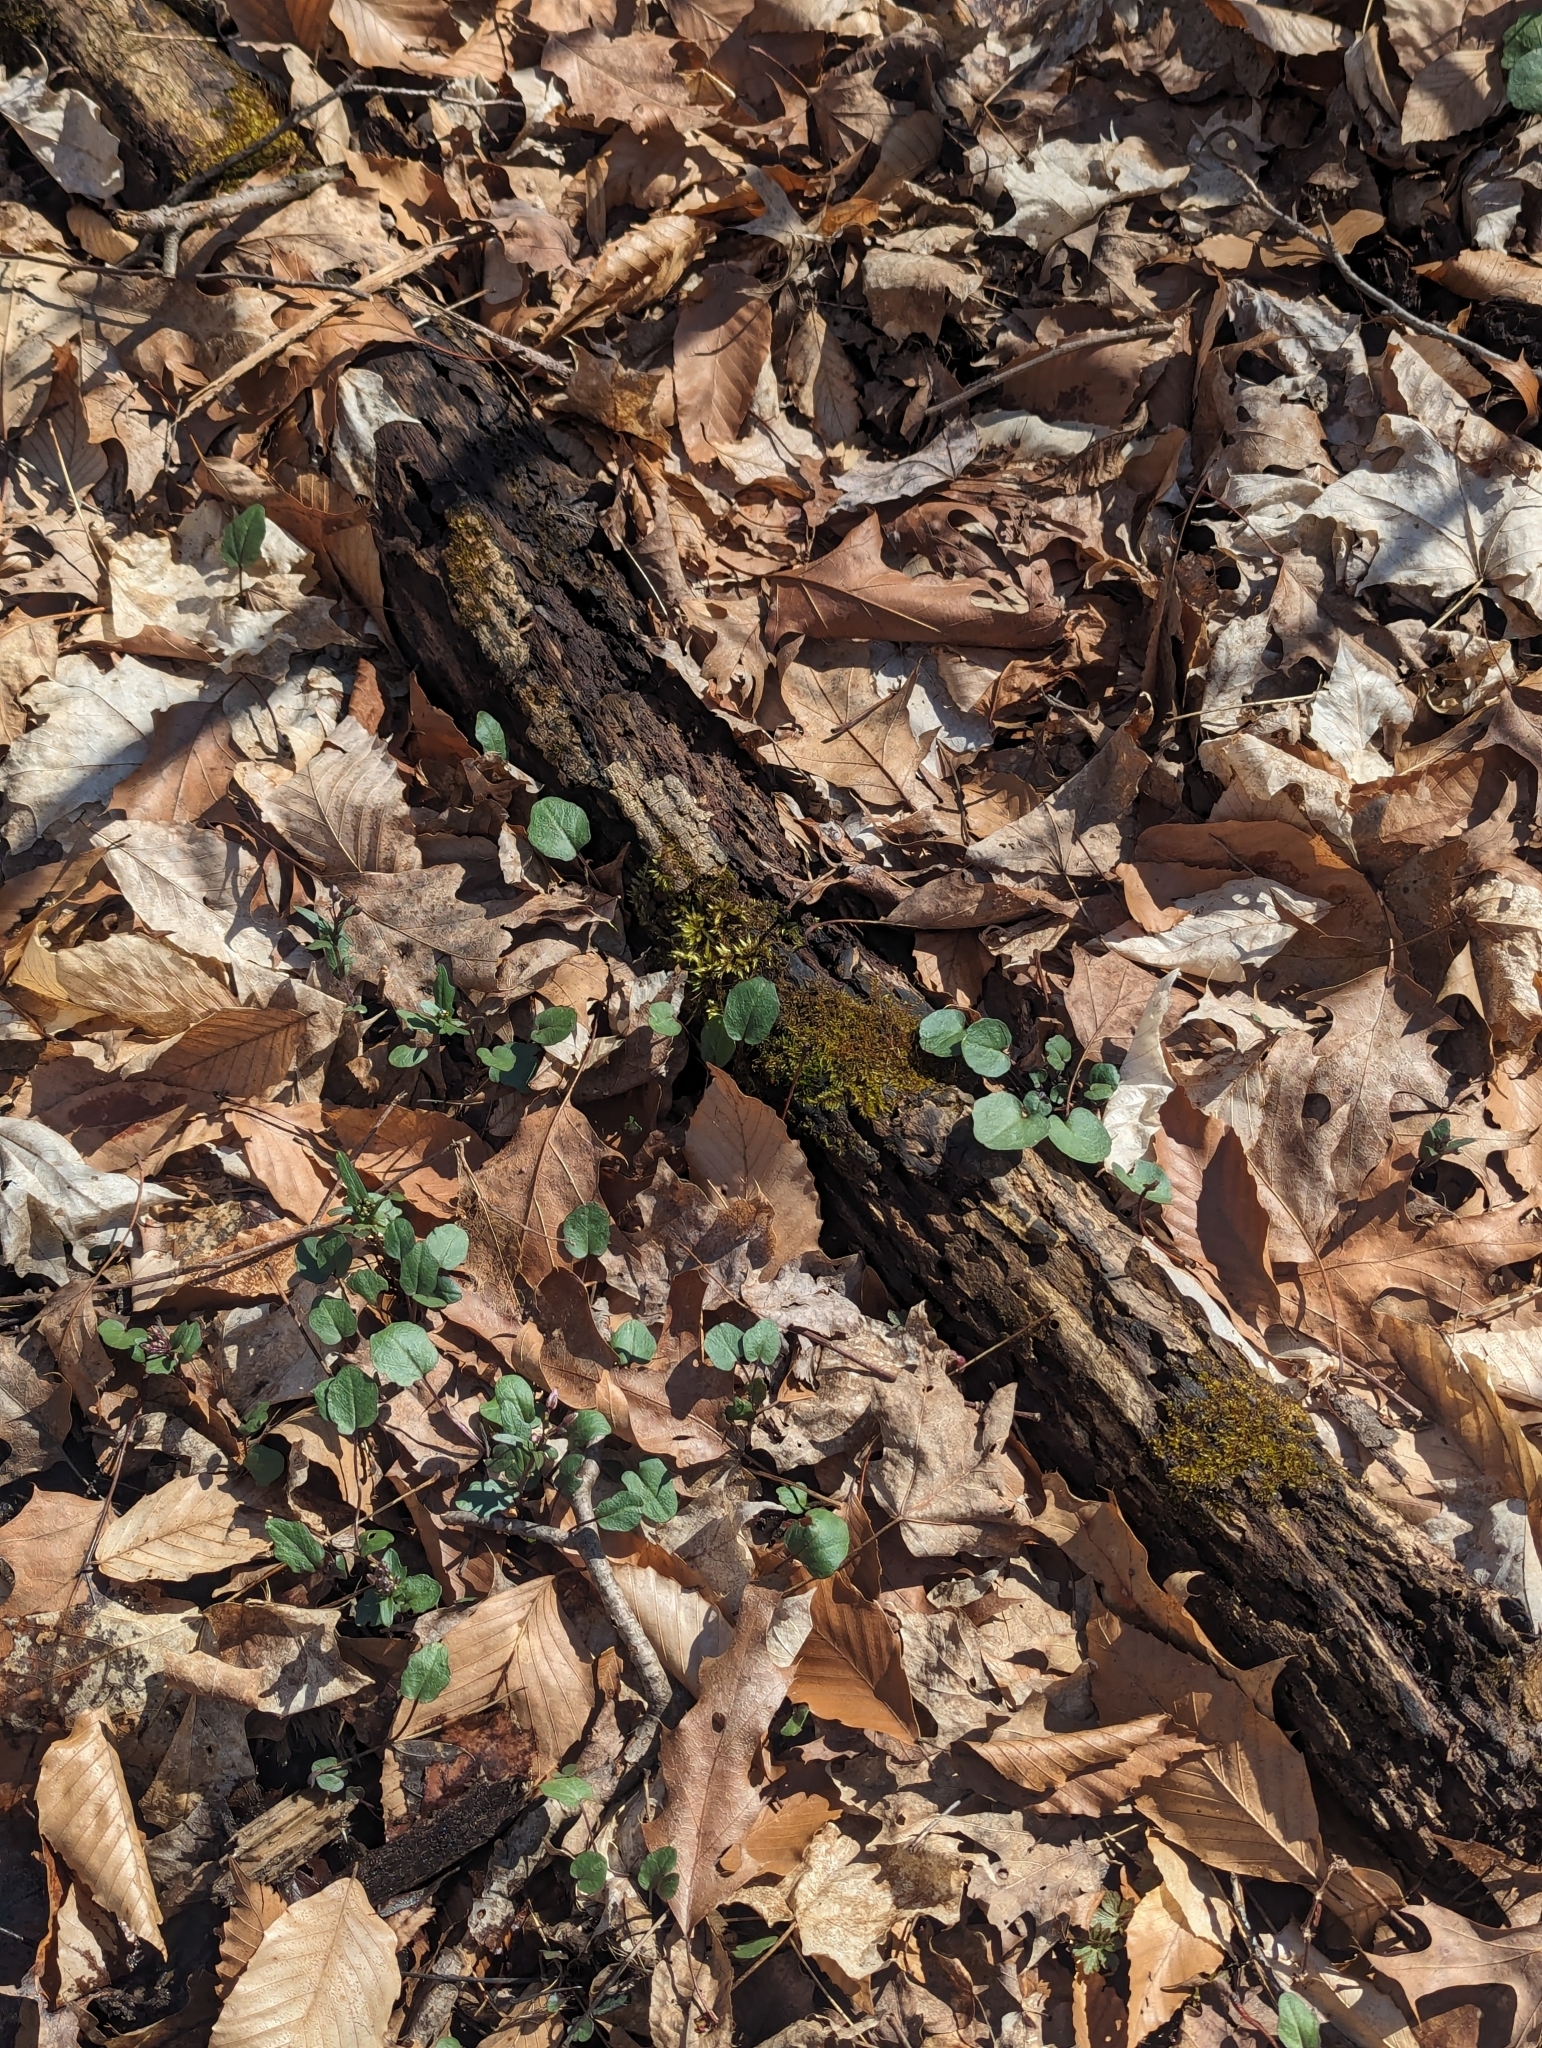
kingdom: Plantae
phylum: Tracheophyta
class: Magnoliopsida
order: Brassicales
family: Brassicaceae
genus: Cardamine
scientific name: Cardamine douglassii
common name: Purple cress
